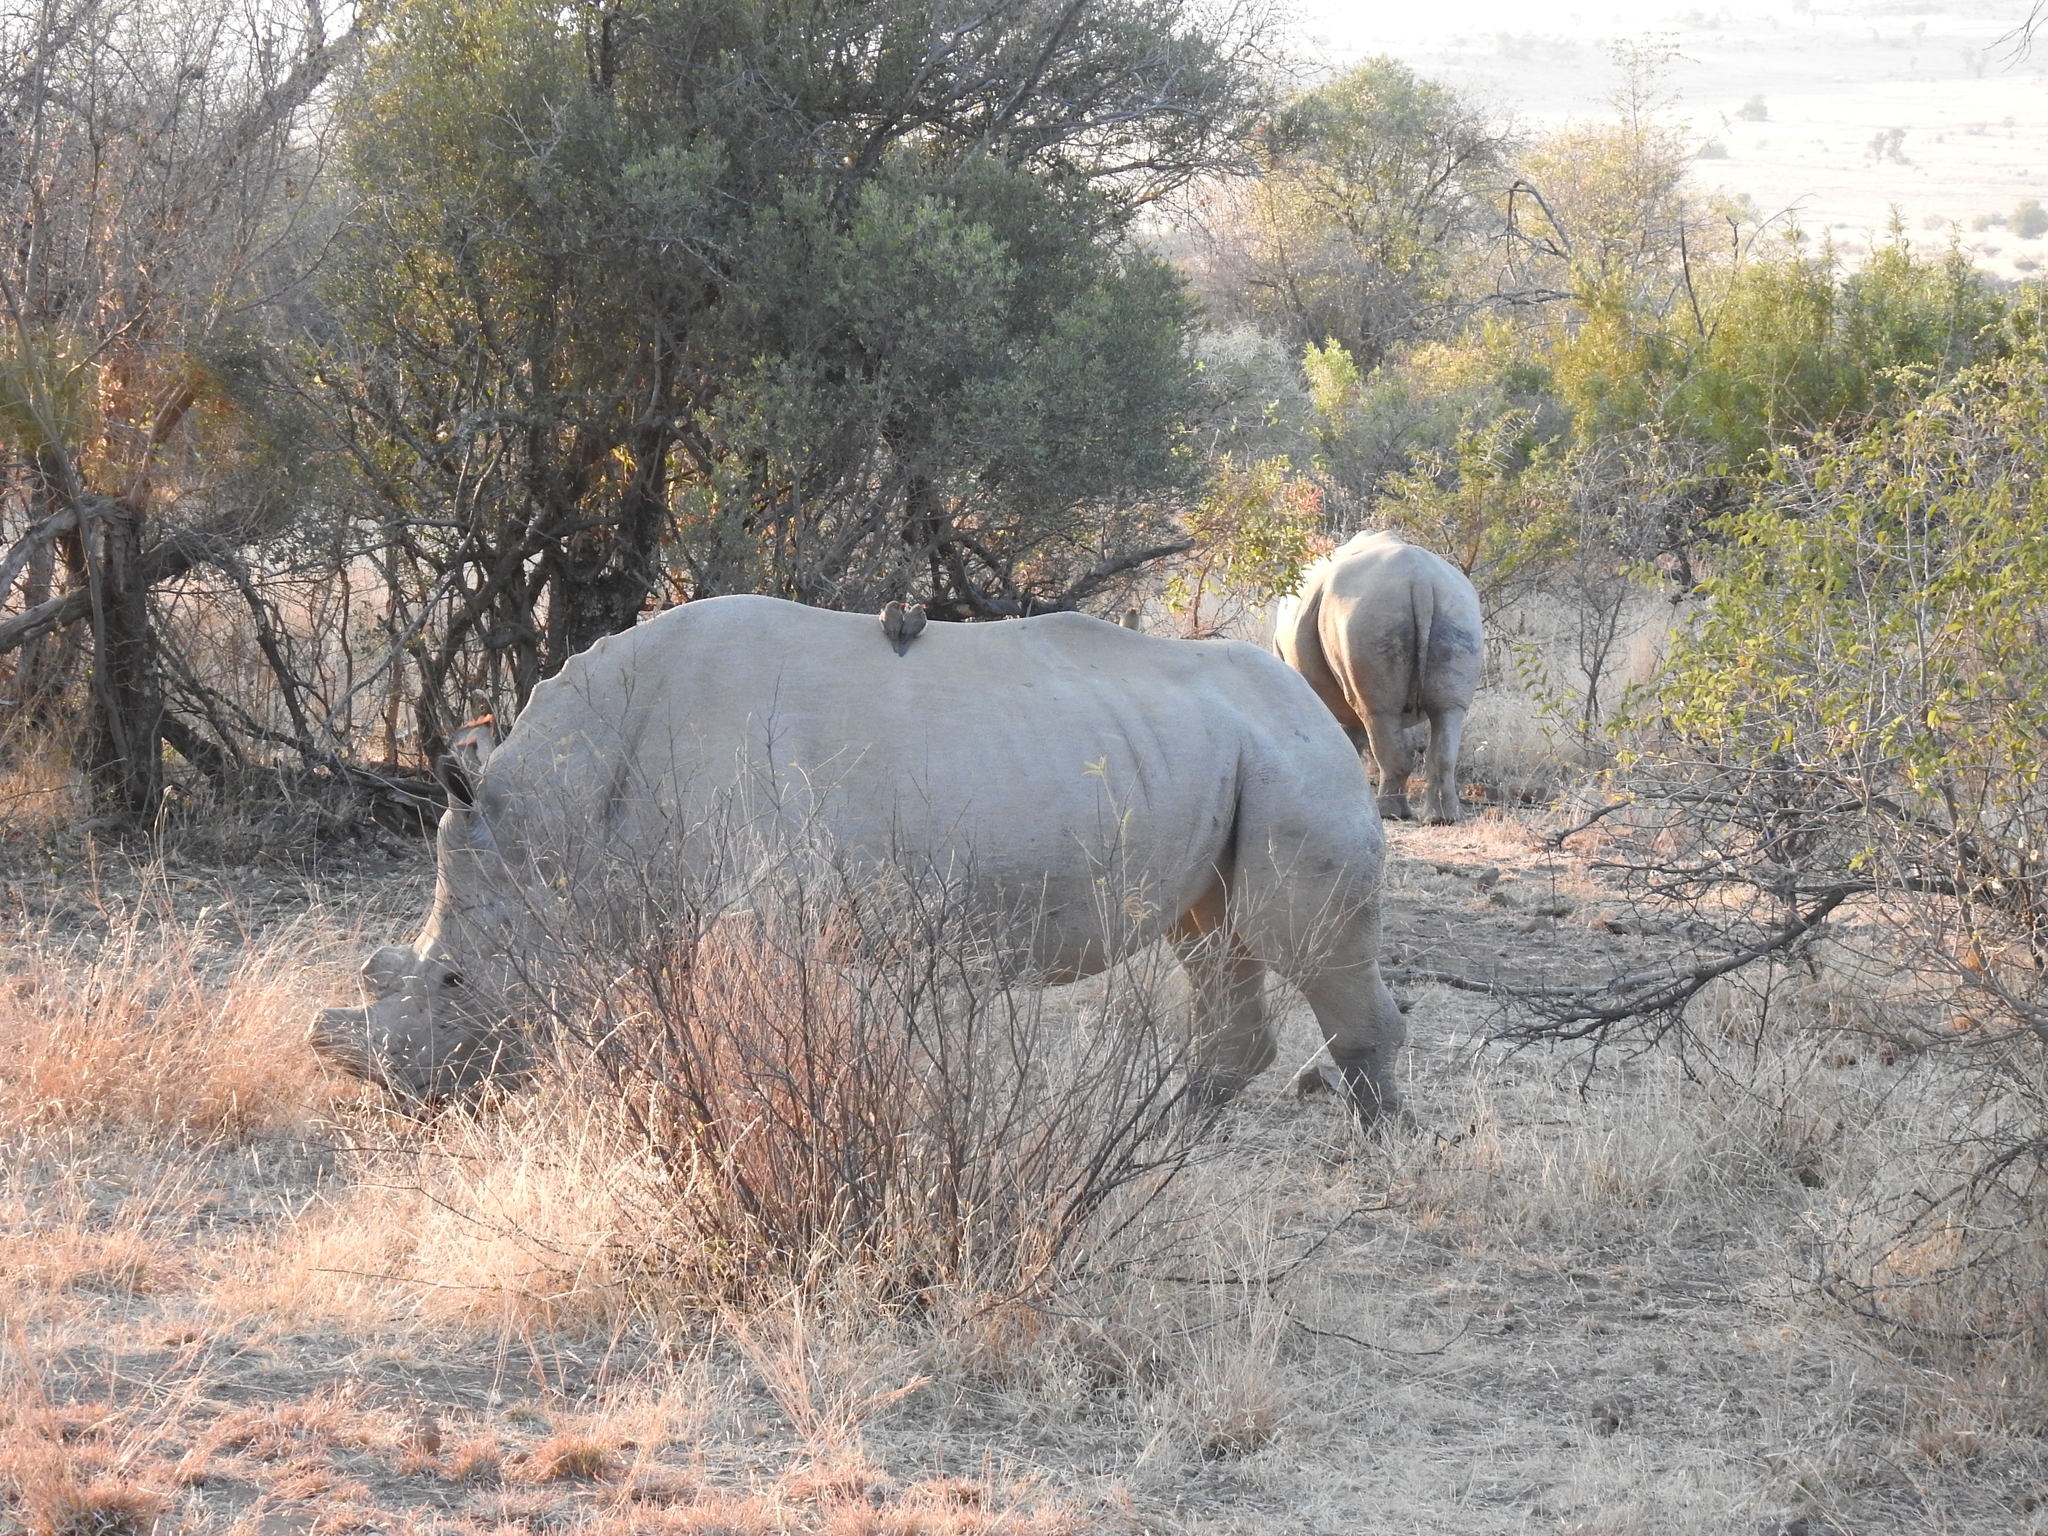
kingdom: Animalia
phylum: Chordata
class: Mammalia
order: Perissodactyla
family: Rhinocerotidae
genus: Ceratotherium
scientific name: Ceratotherium simum
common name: White rhinoceros
